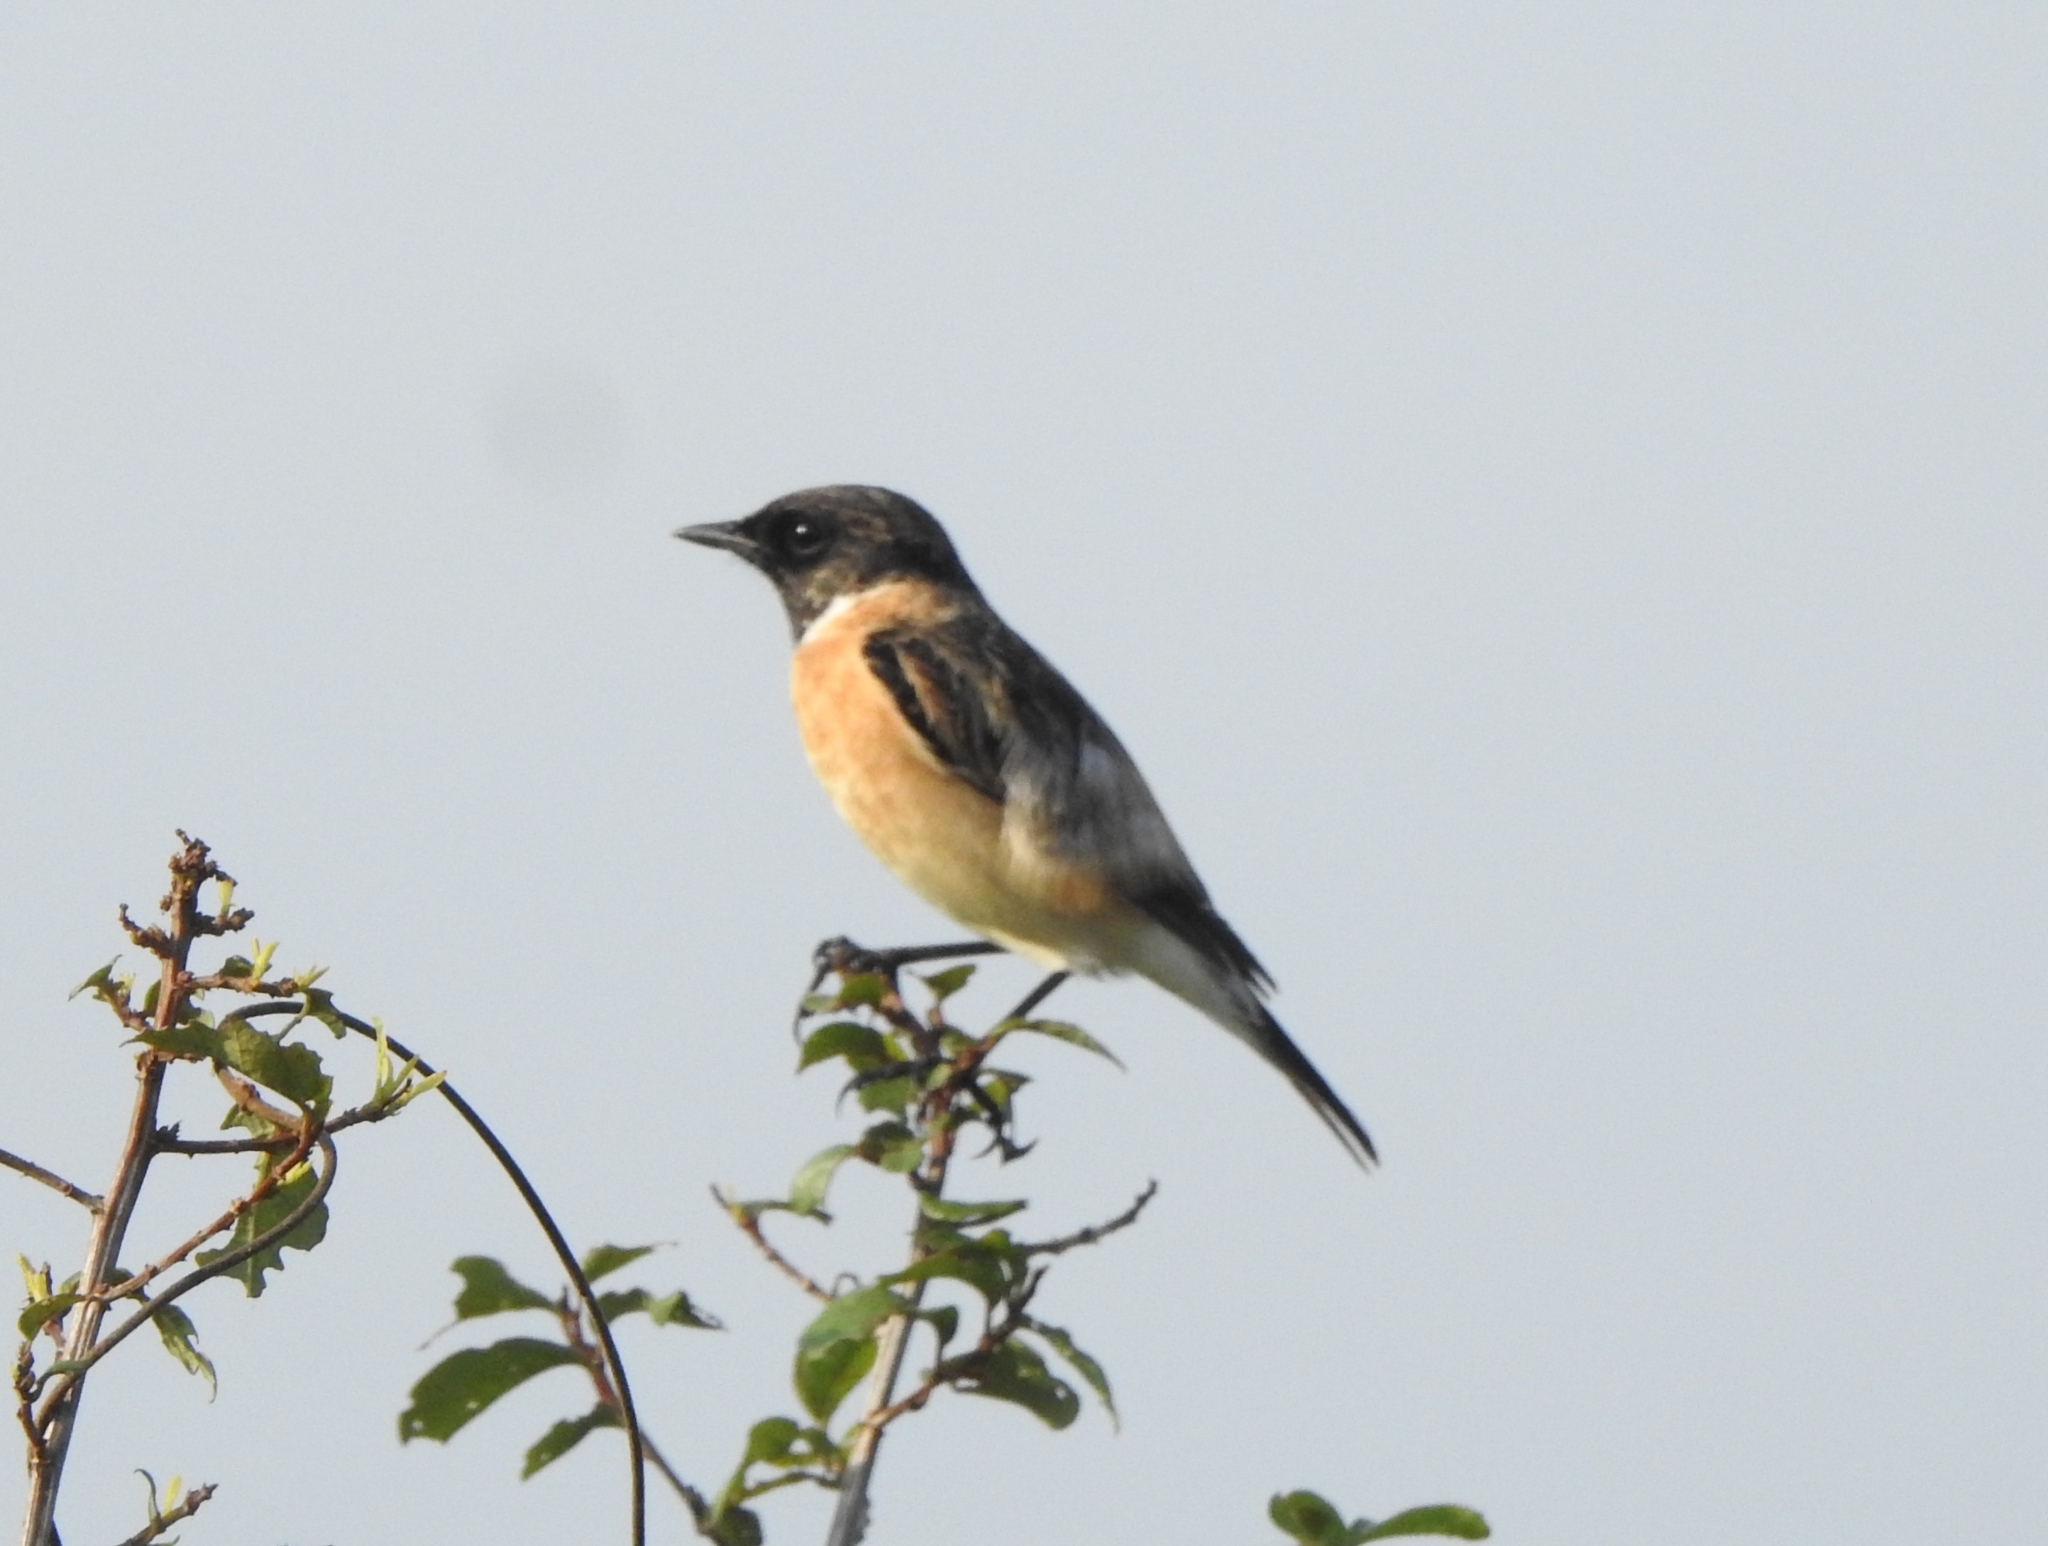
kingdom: Animalia
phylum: Chordata
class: Aves
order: Passeriformes
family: Muscicapidae
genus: Saxicola
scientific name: Saxicola maurus
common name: Siberian stonechat
